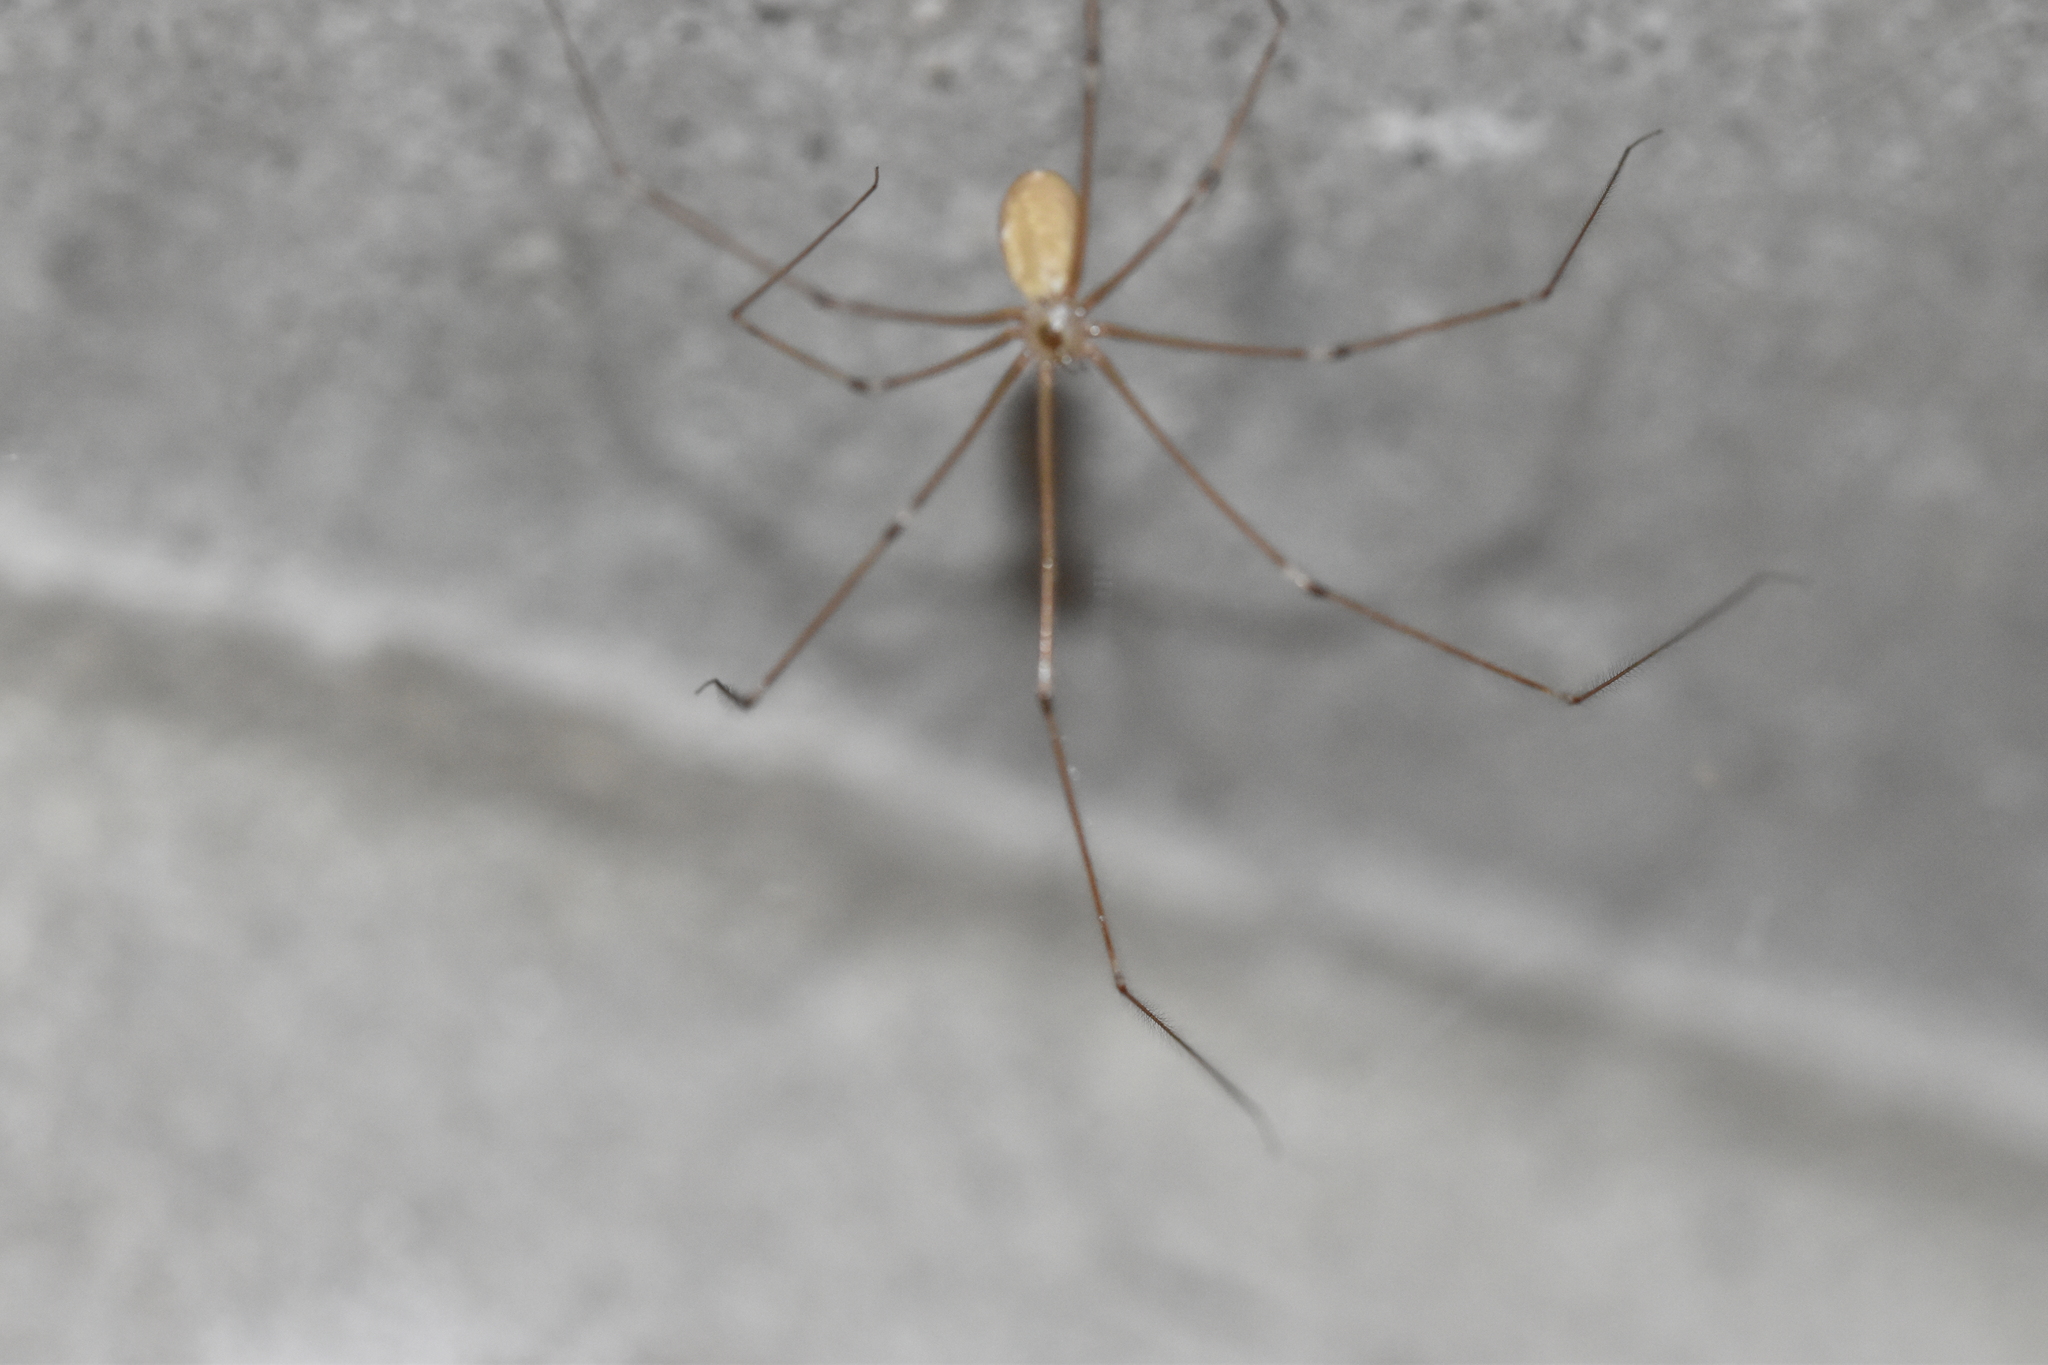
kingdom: Animalia
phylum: Arthropoda
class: Arachnida
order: Araneae
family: Pholcidae
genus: Pholcus
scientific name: Pholcus phalangioides
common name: Longbodied cellar spider
